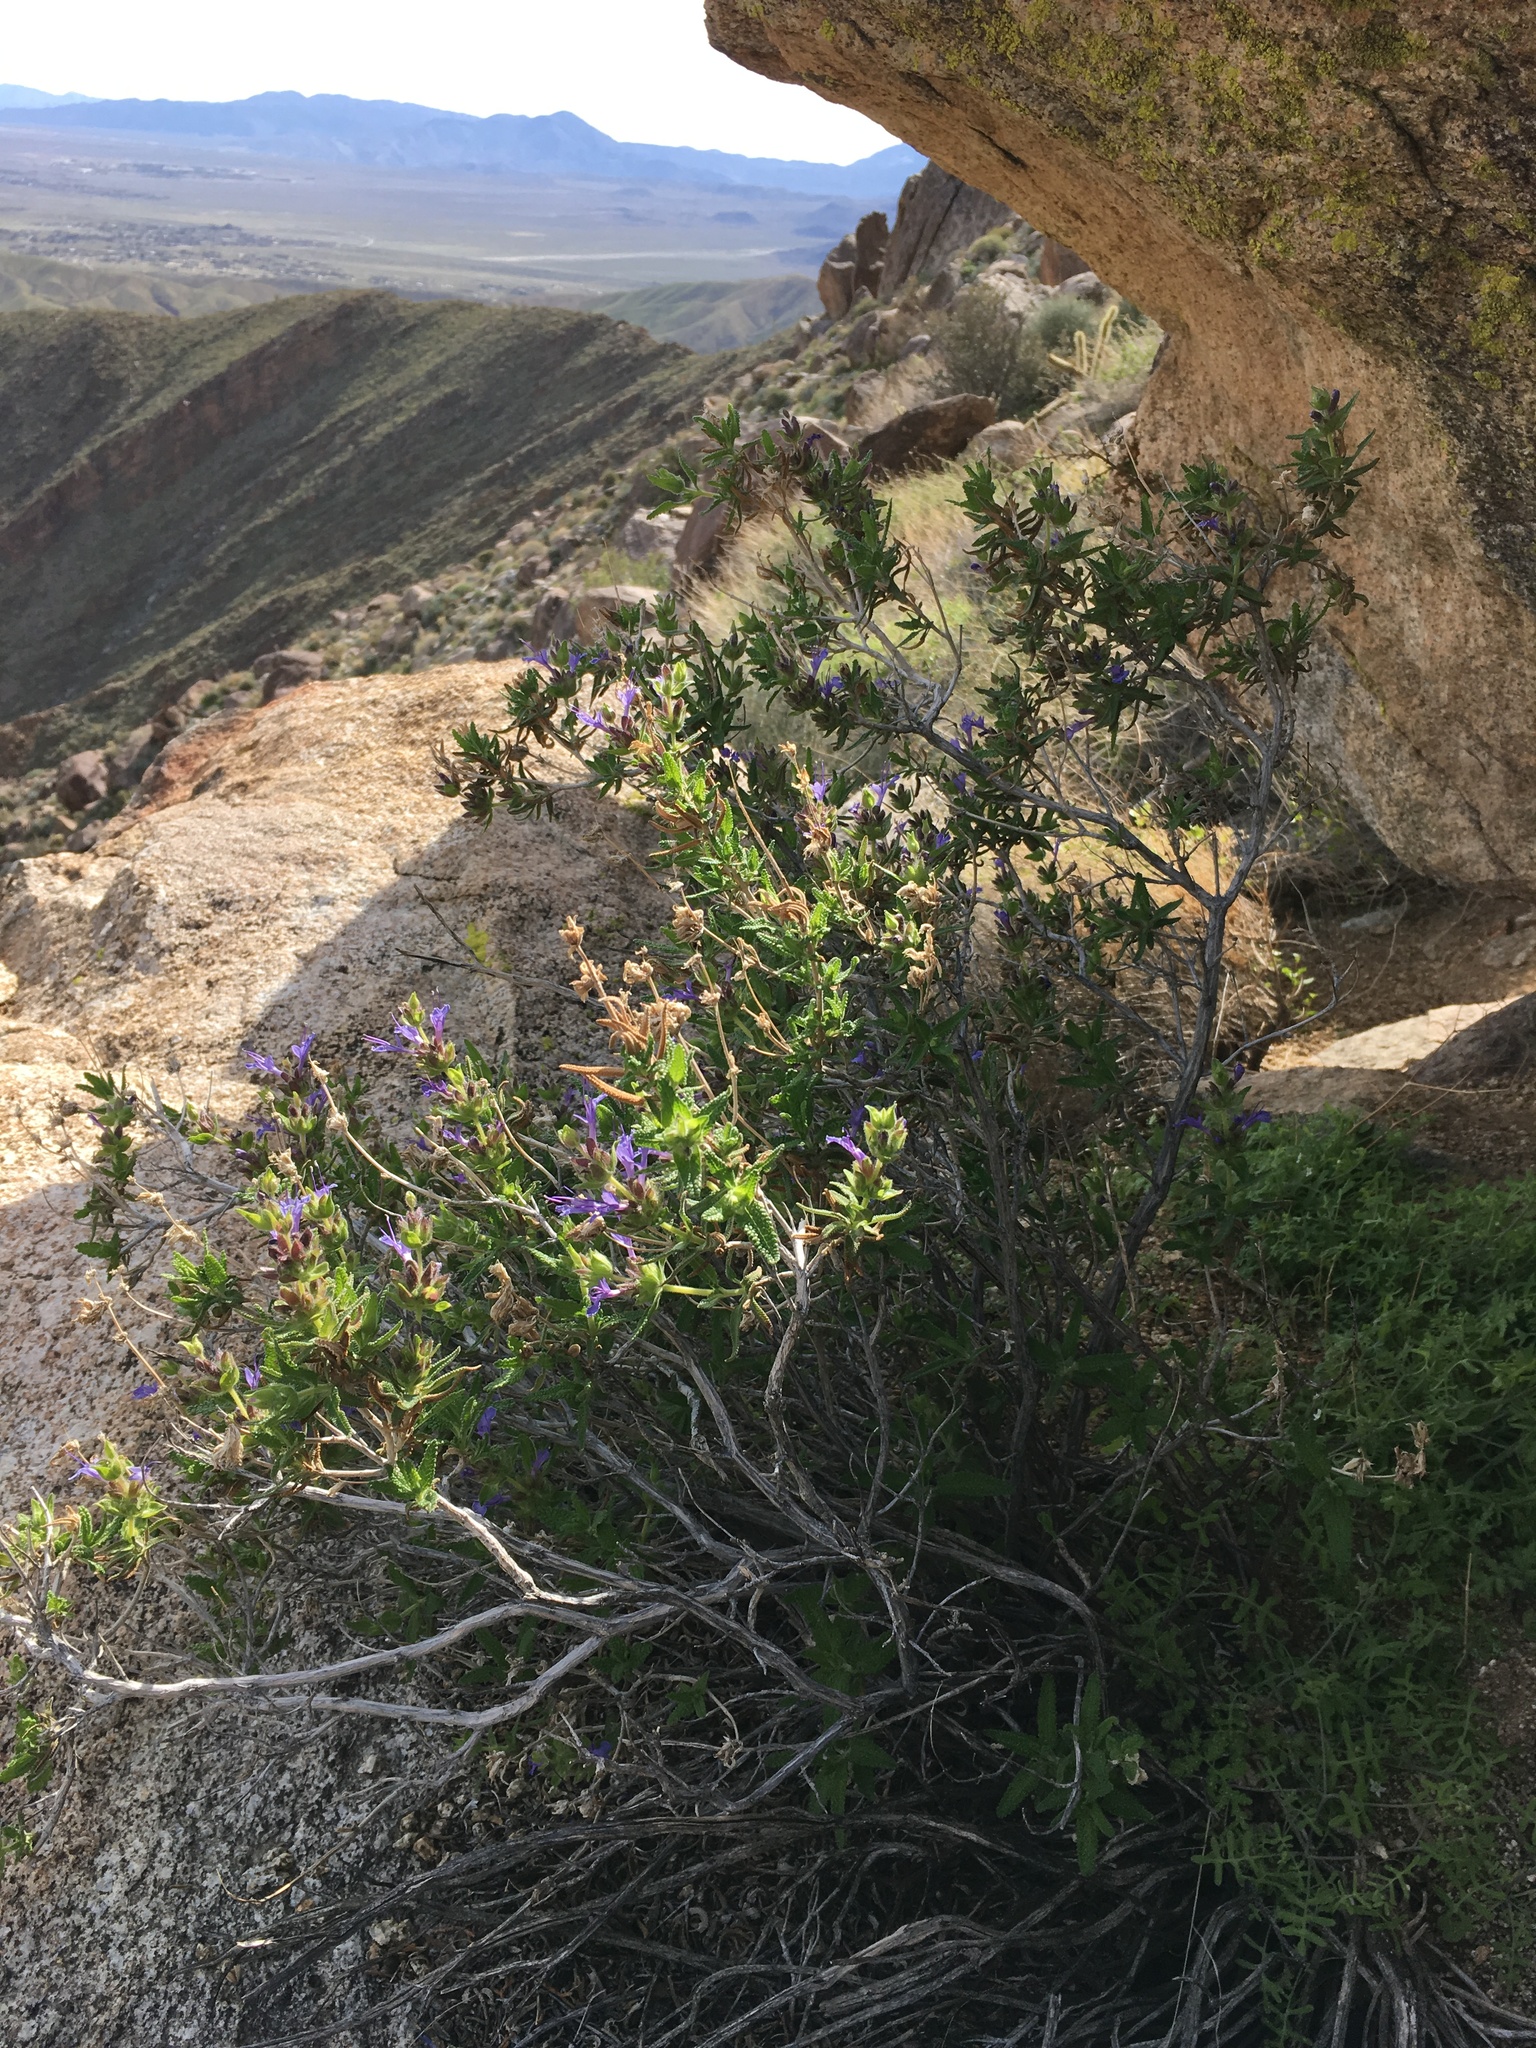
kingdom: Plantae
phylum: Tracheophyta
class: Magnoliopsida
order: Lamiales
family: Lamiaceae
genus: Salvia
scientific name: Salvia eremostachya
